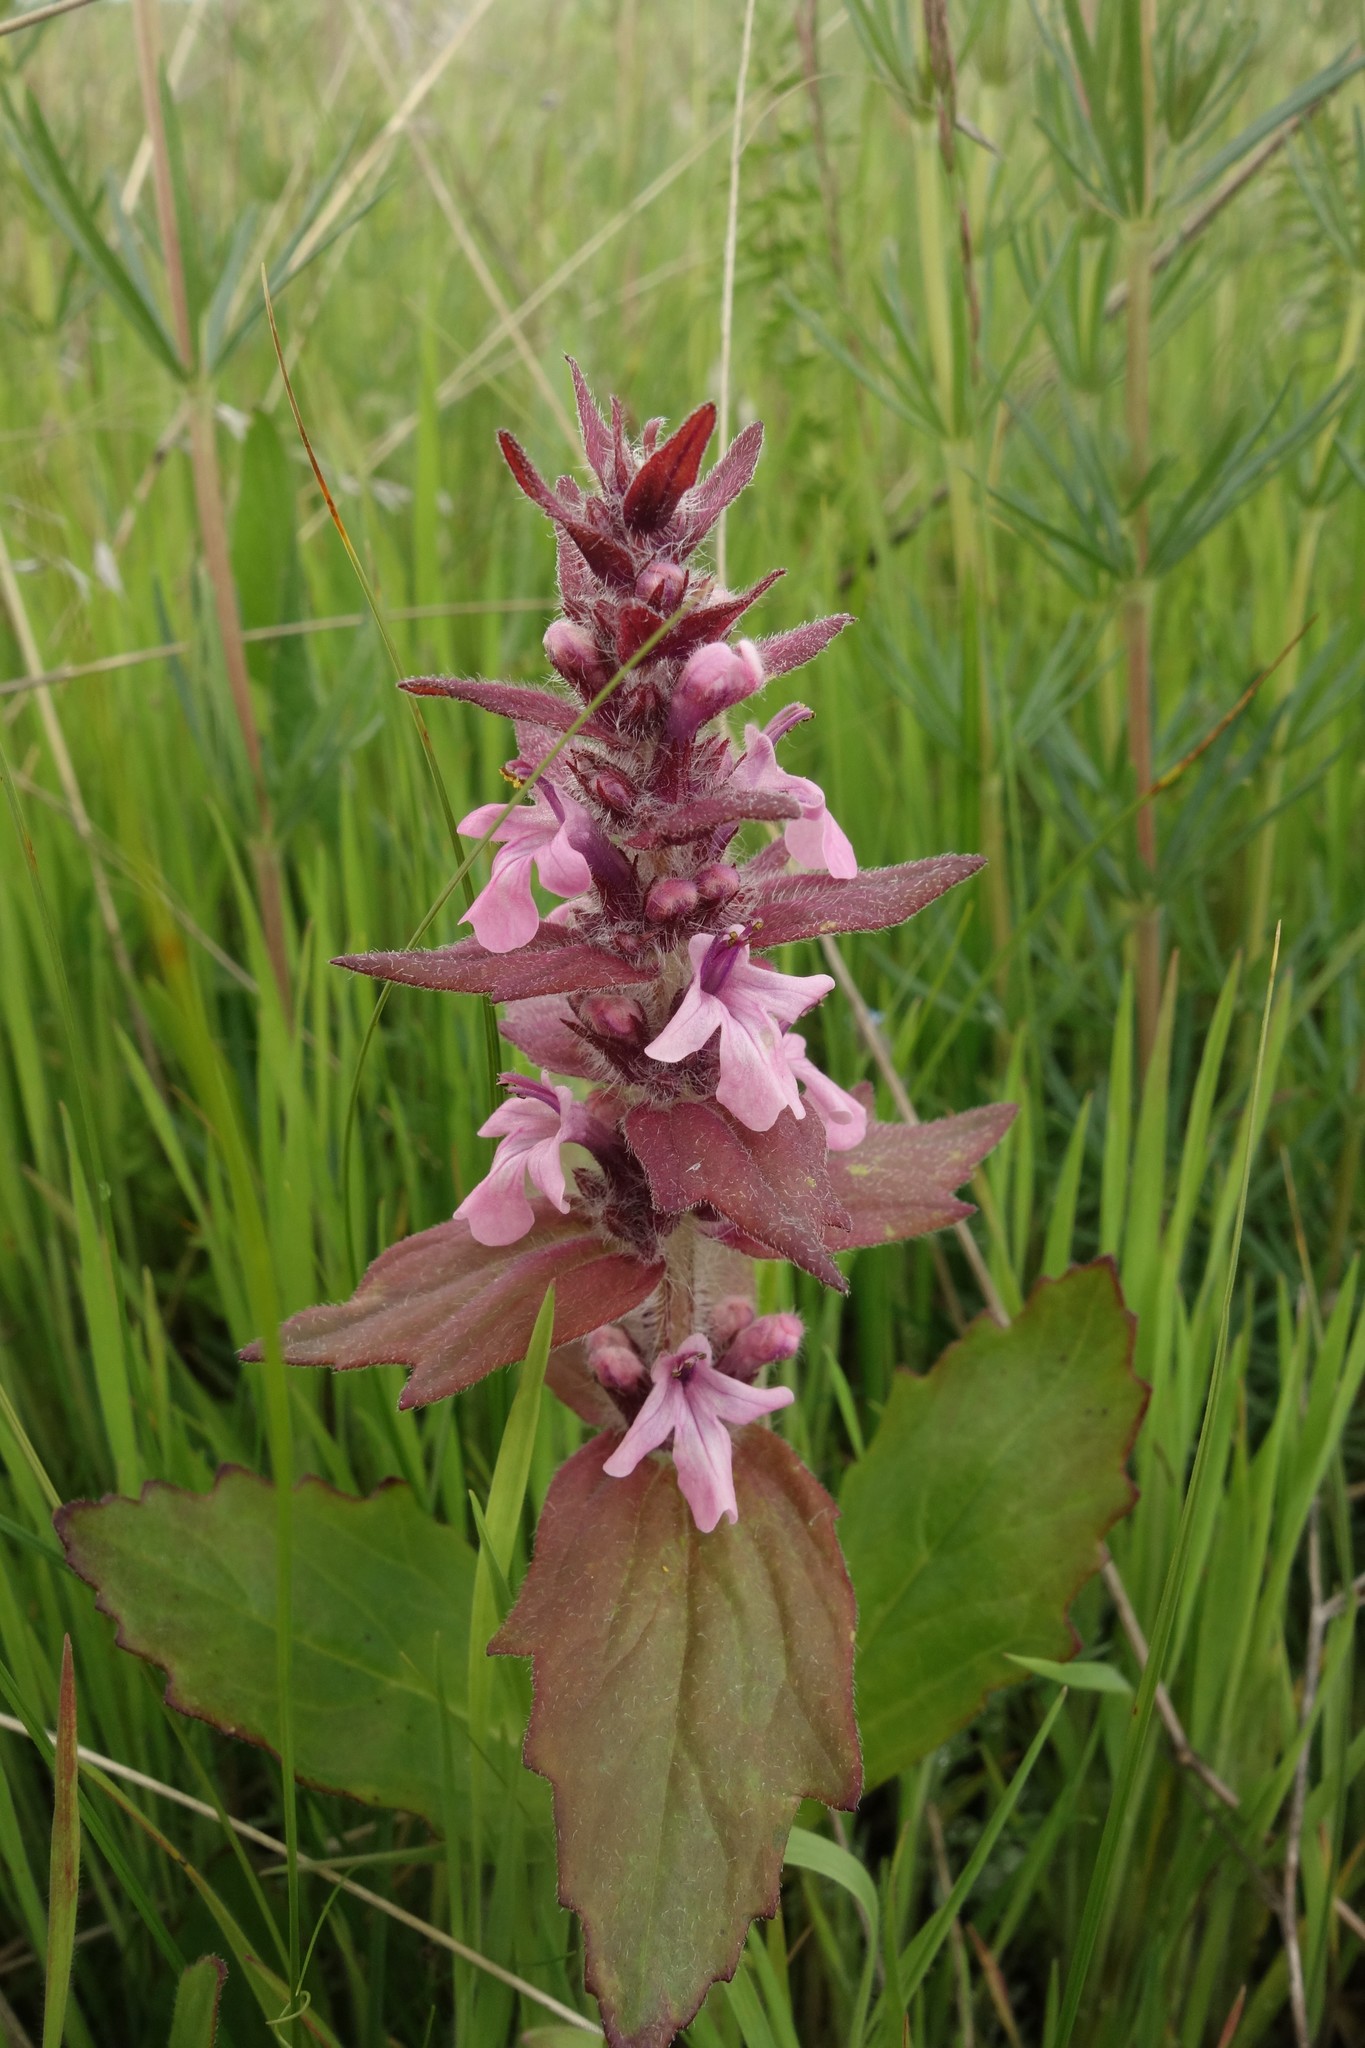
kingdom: Plantae
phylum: Tracheophyta
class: Magnoliopsida
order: Lamiales
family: Lamiaceae
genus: Ajuga
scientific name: Ajuga genevensis
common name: Blue bugle
